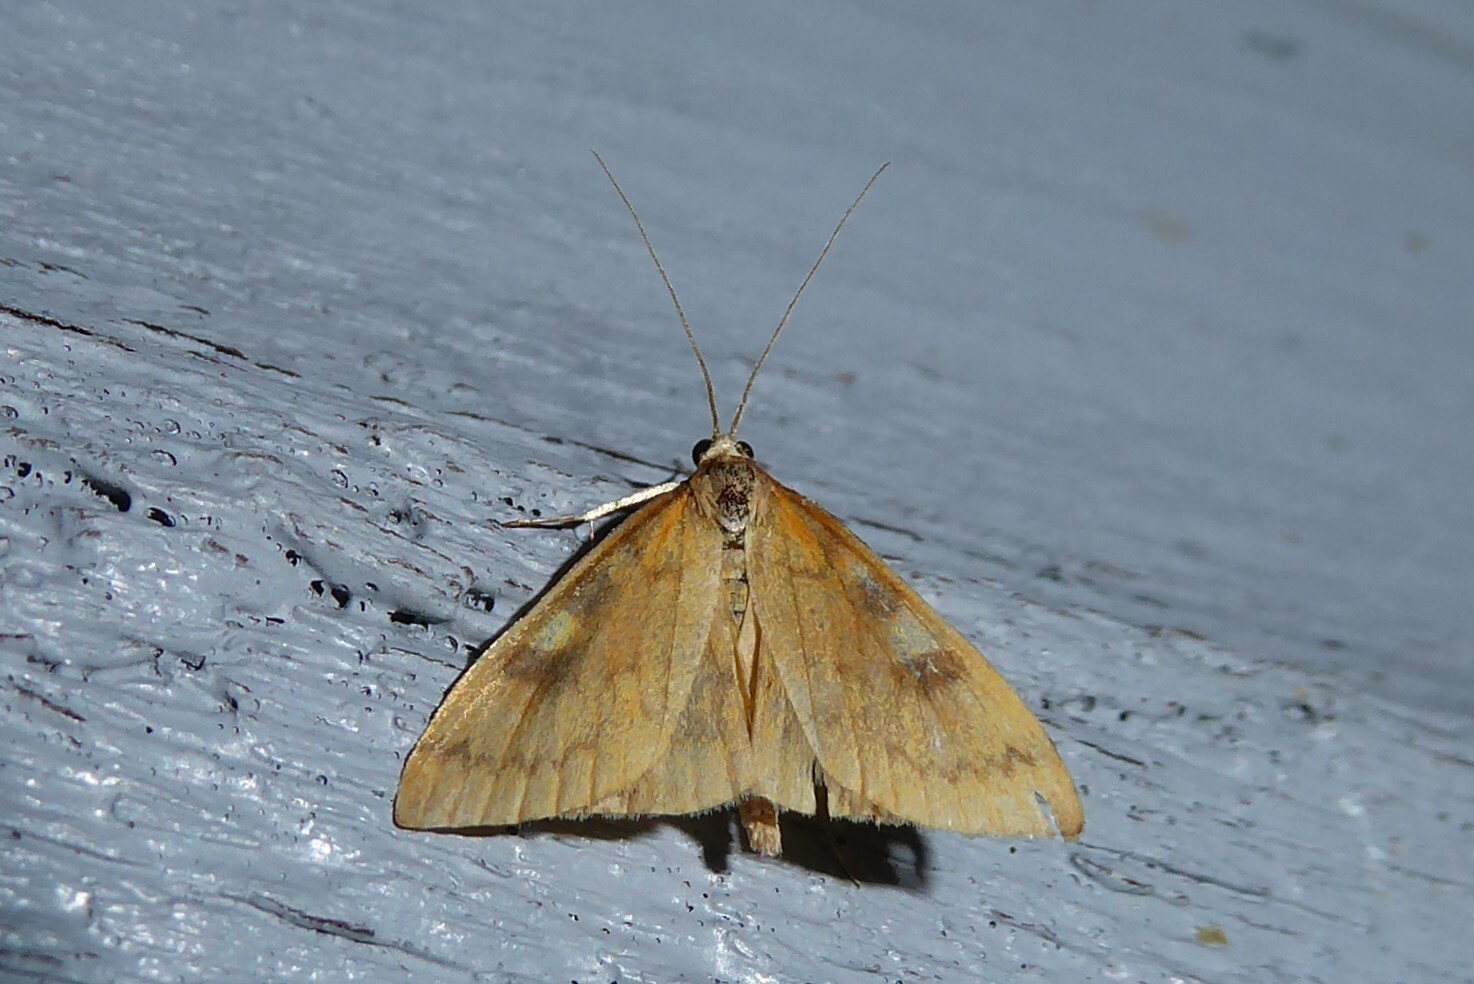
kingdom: Animalia
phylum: Arthropoda
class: Insecta
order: Lepidoptera
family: Crambidae
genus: Udea
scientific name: Udea Mnesictena flavidalis
